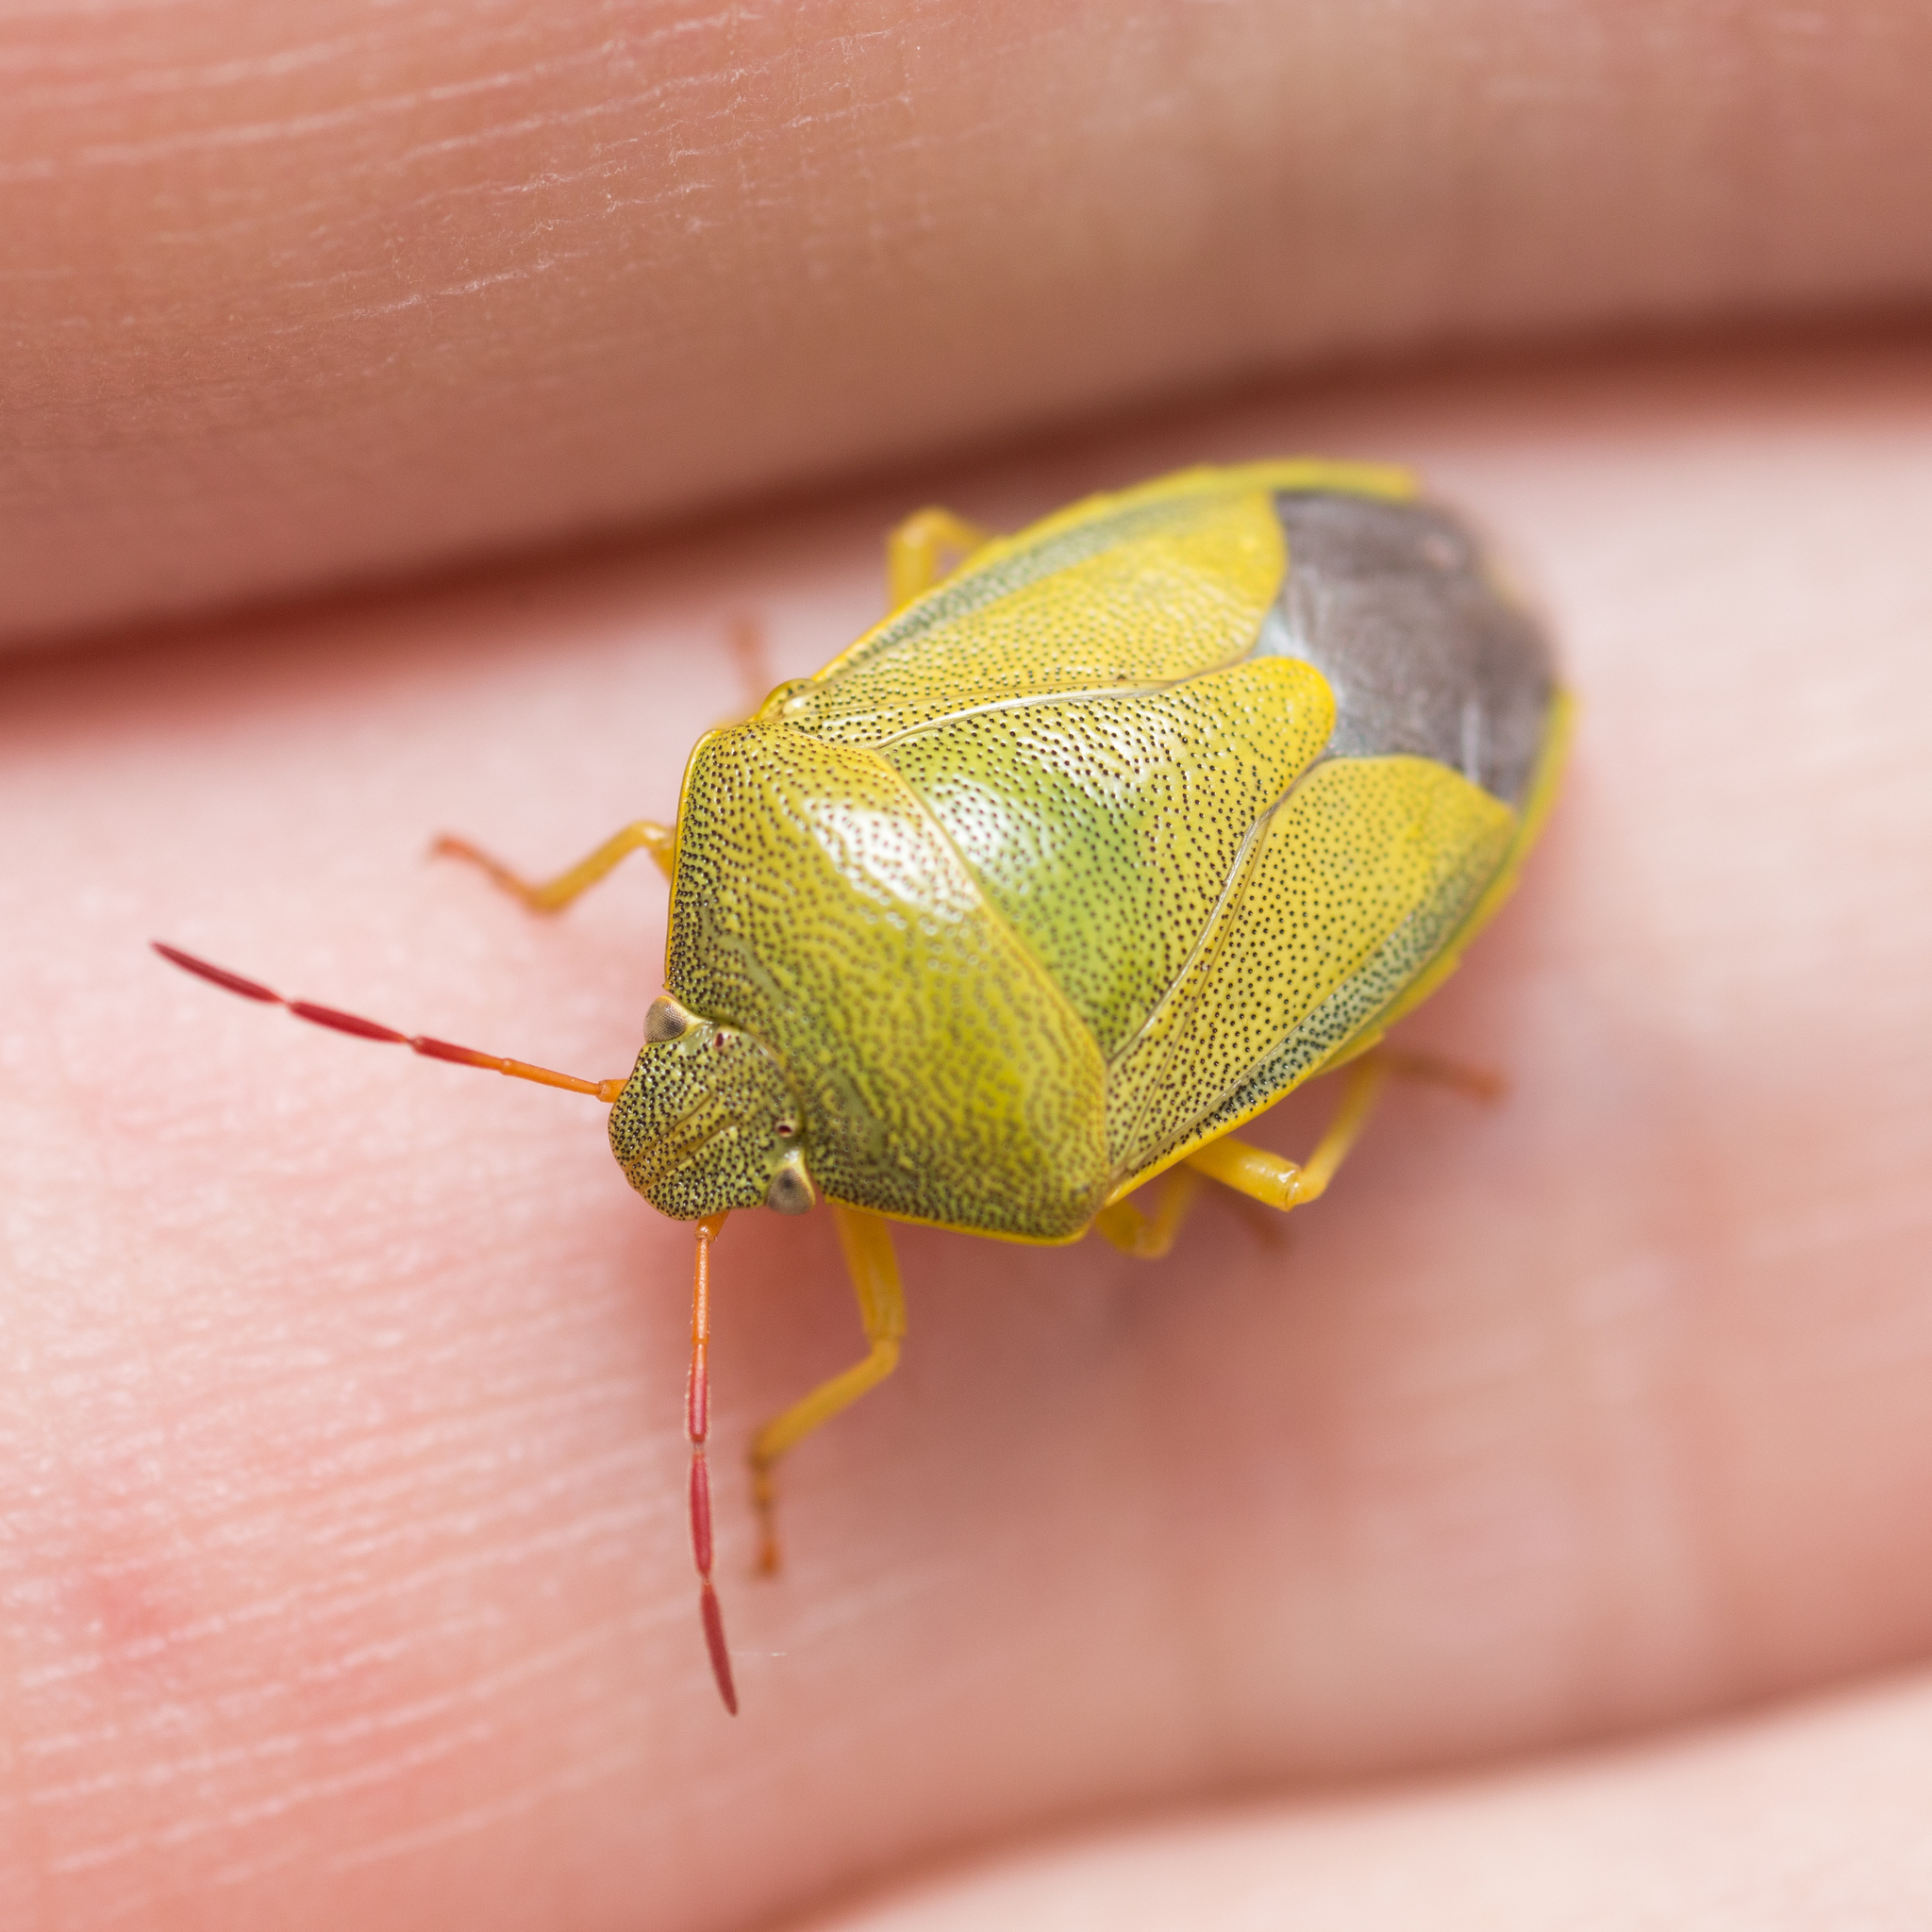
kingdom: Animalia
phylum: Arthropoda
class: Insecta
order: Hemiptera
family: Pentatomidae
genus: Piezodorus
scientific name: Piezodorus lituratus
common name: Stink bug
